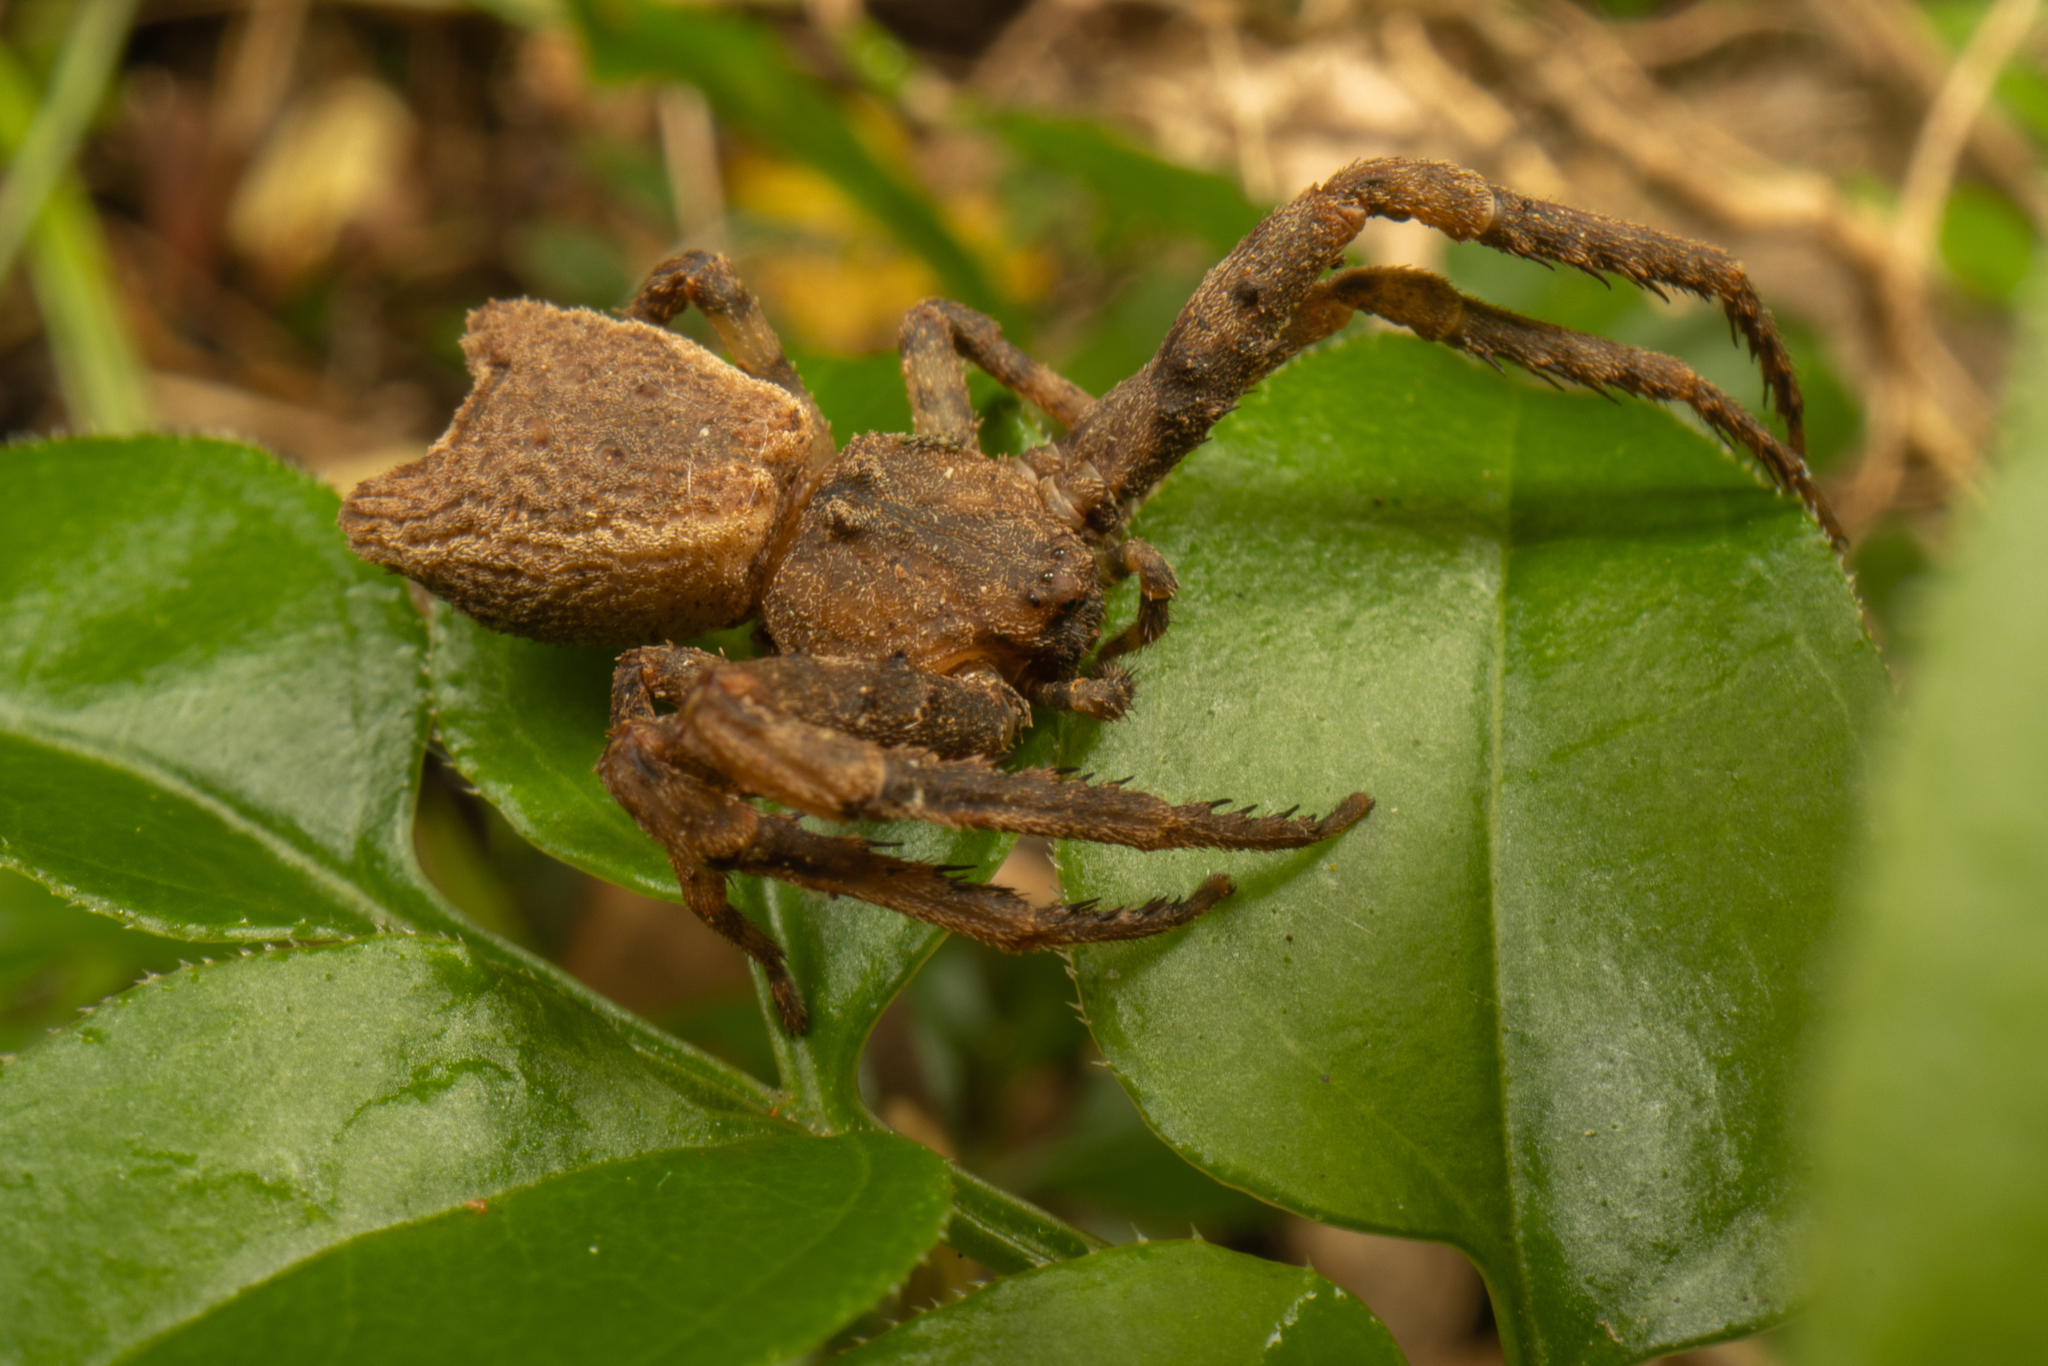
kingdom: Animalia
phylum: Arthropoda
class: Arachnida
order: Araneae
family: Thomisidae
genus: Sidymella
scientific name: Sidymella angularis
